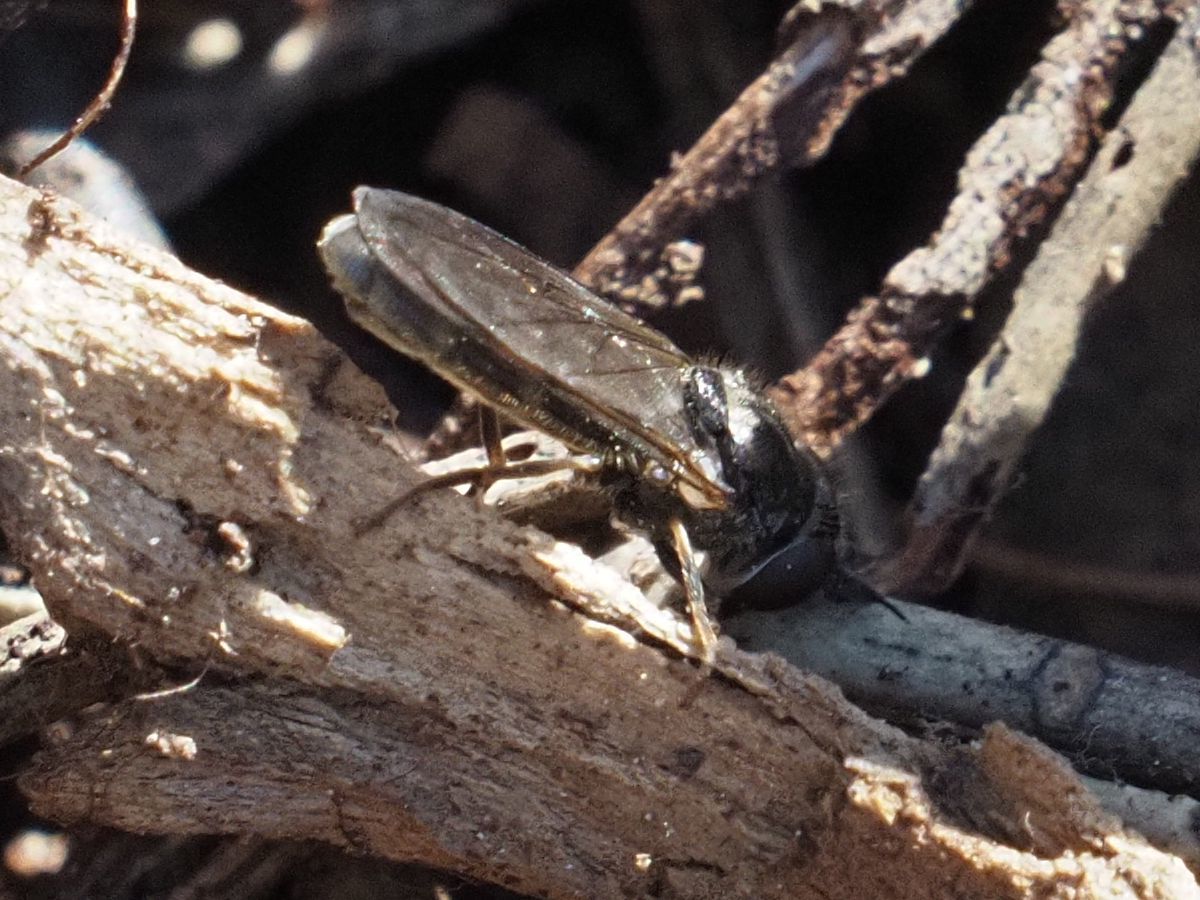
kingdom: Animalia
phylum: Arthropoda
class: Insecta
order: Diptera
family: Syrphidae
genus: Pseudopelecocera
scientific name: Pseudopelecocera latifrons
